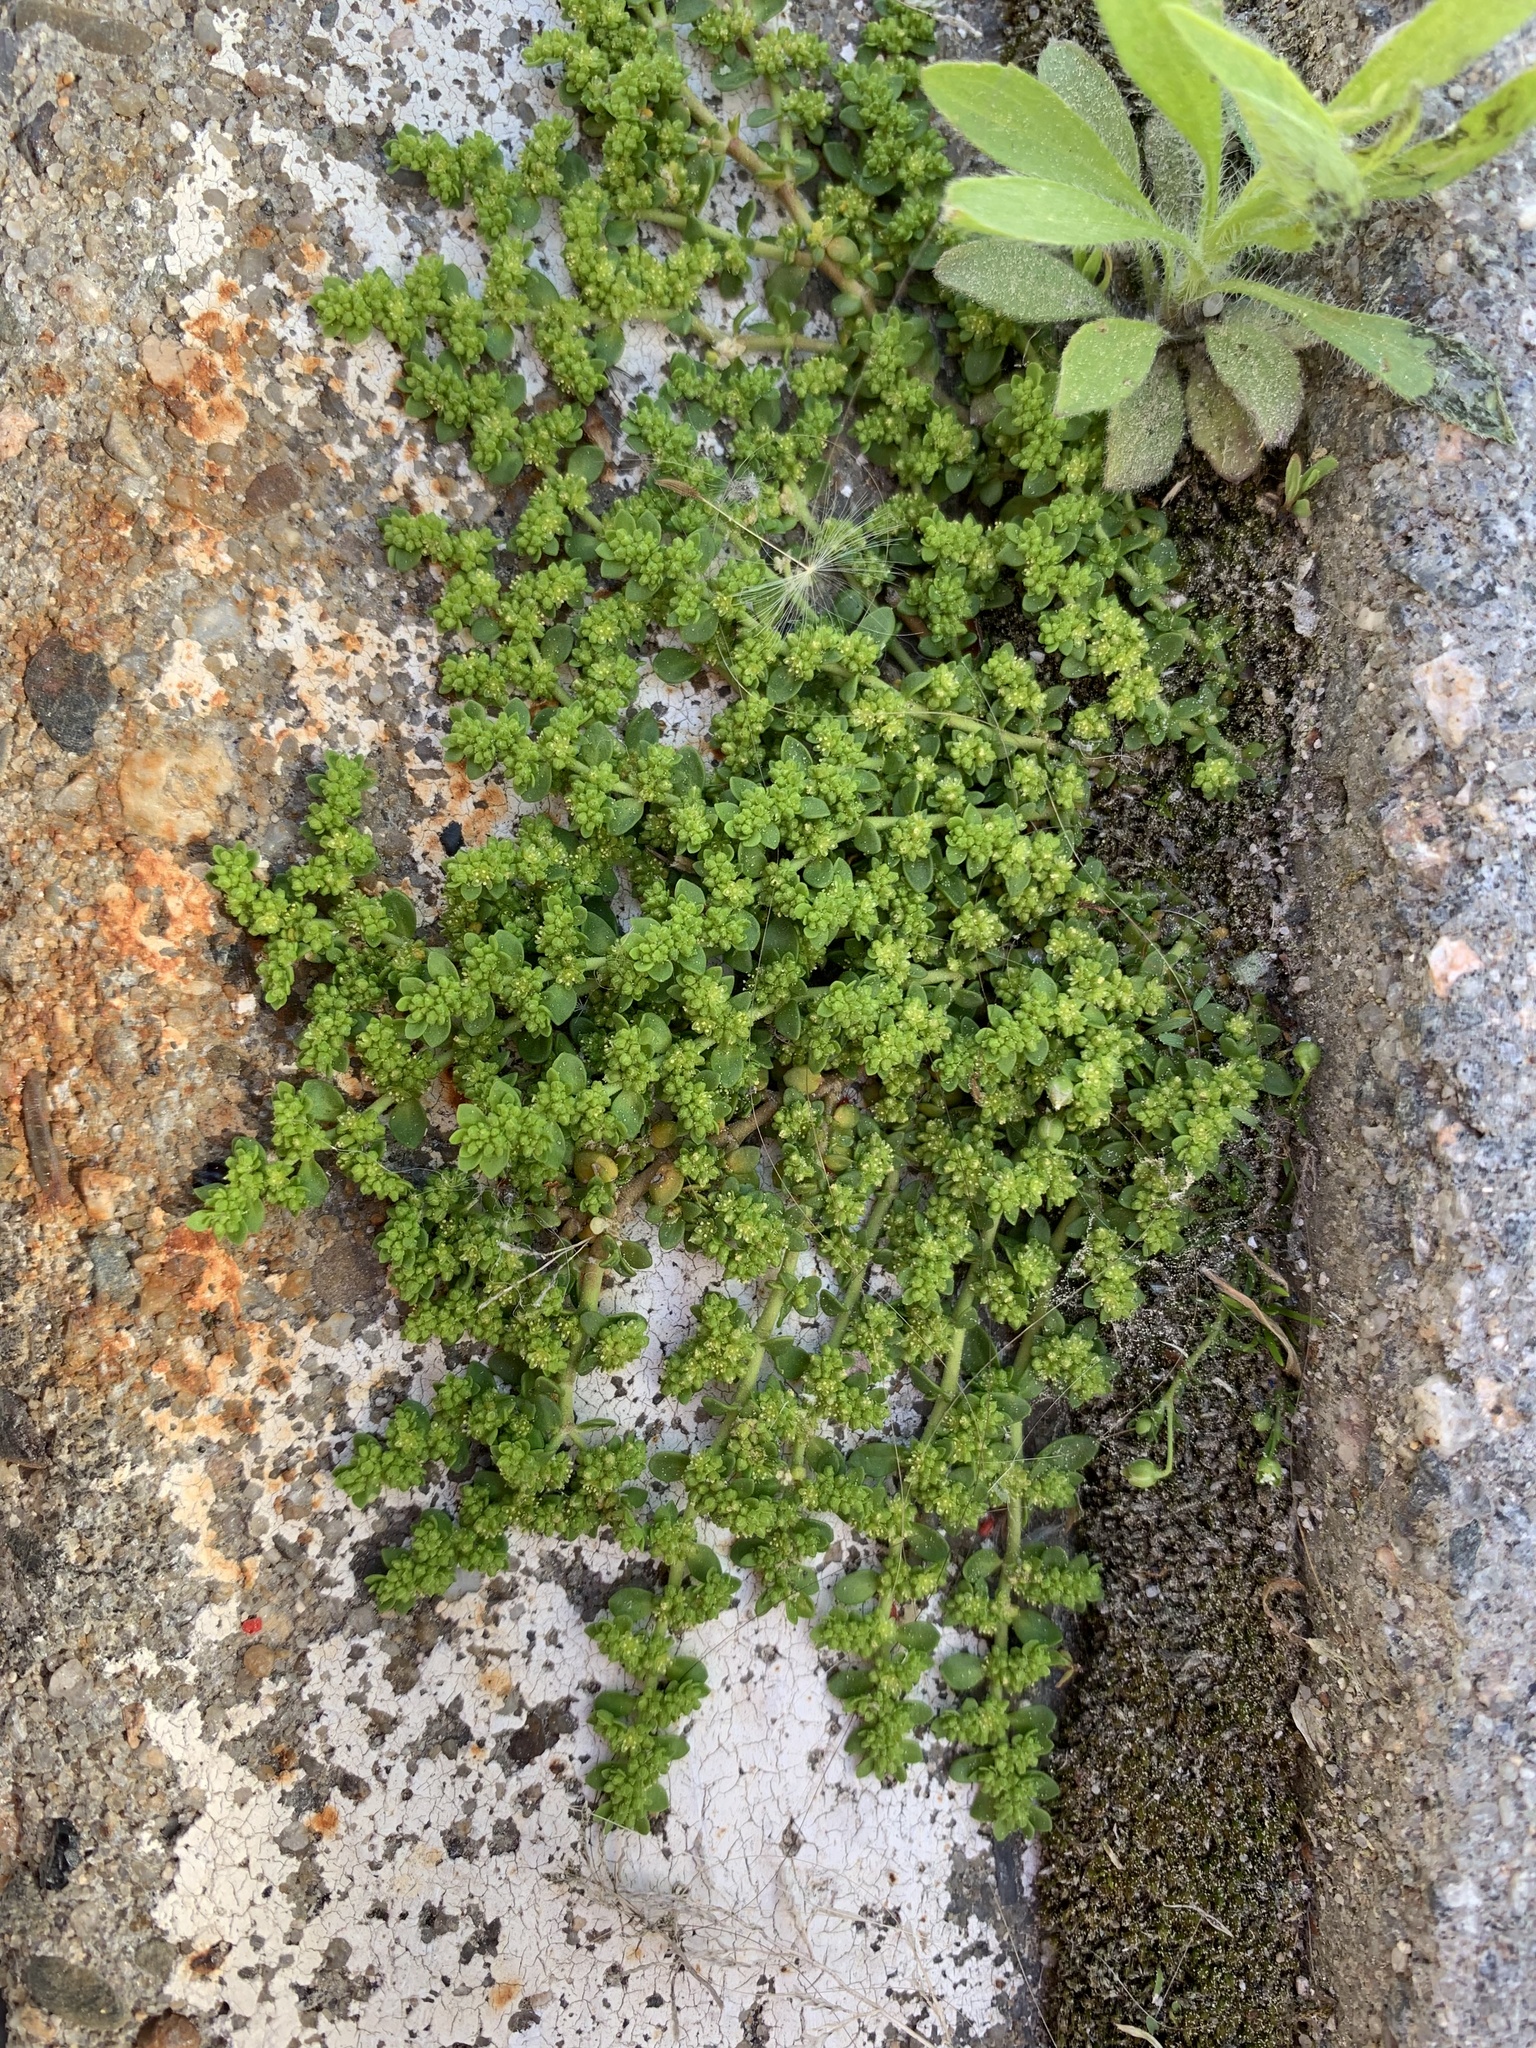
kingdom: Plantae
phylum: Tracheophyta
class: Magnoliopsida
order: Caryophyllales
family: Caryophyllaceae
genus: Herniaria
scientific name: Herniaria glabra
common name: Smooth rupturewort
